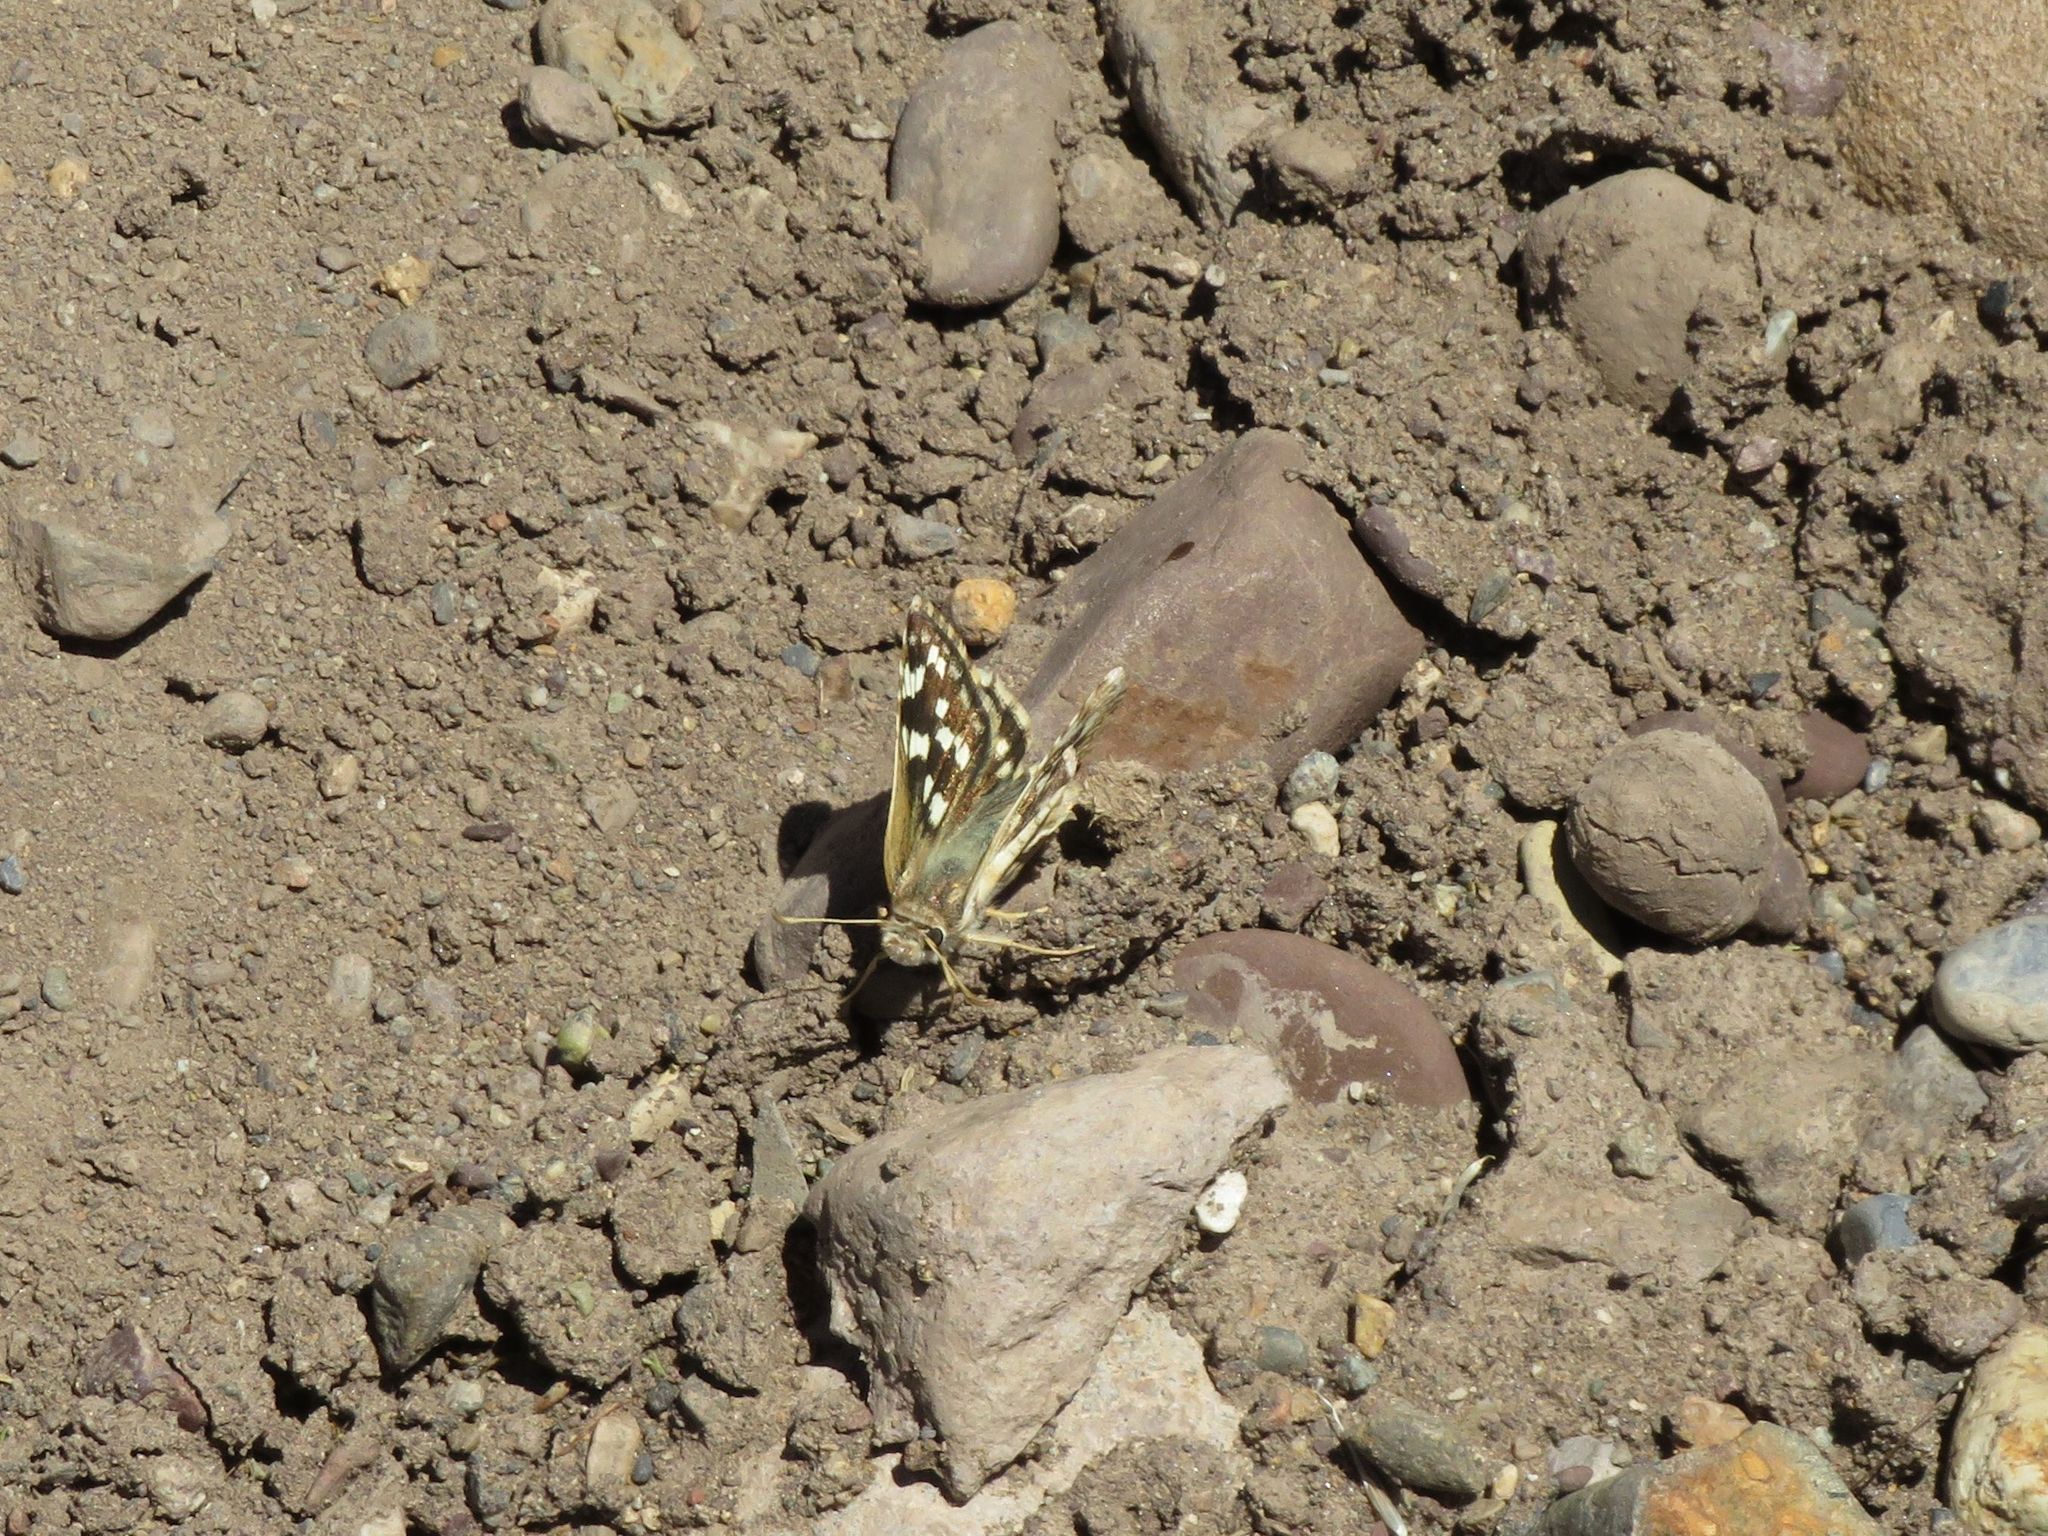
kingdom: Animalia
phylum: Arthropoda
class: Insecta
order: Lepidoptera
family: Hesperiidae
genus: Chirgus
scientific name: Chirgus fides
